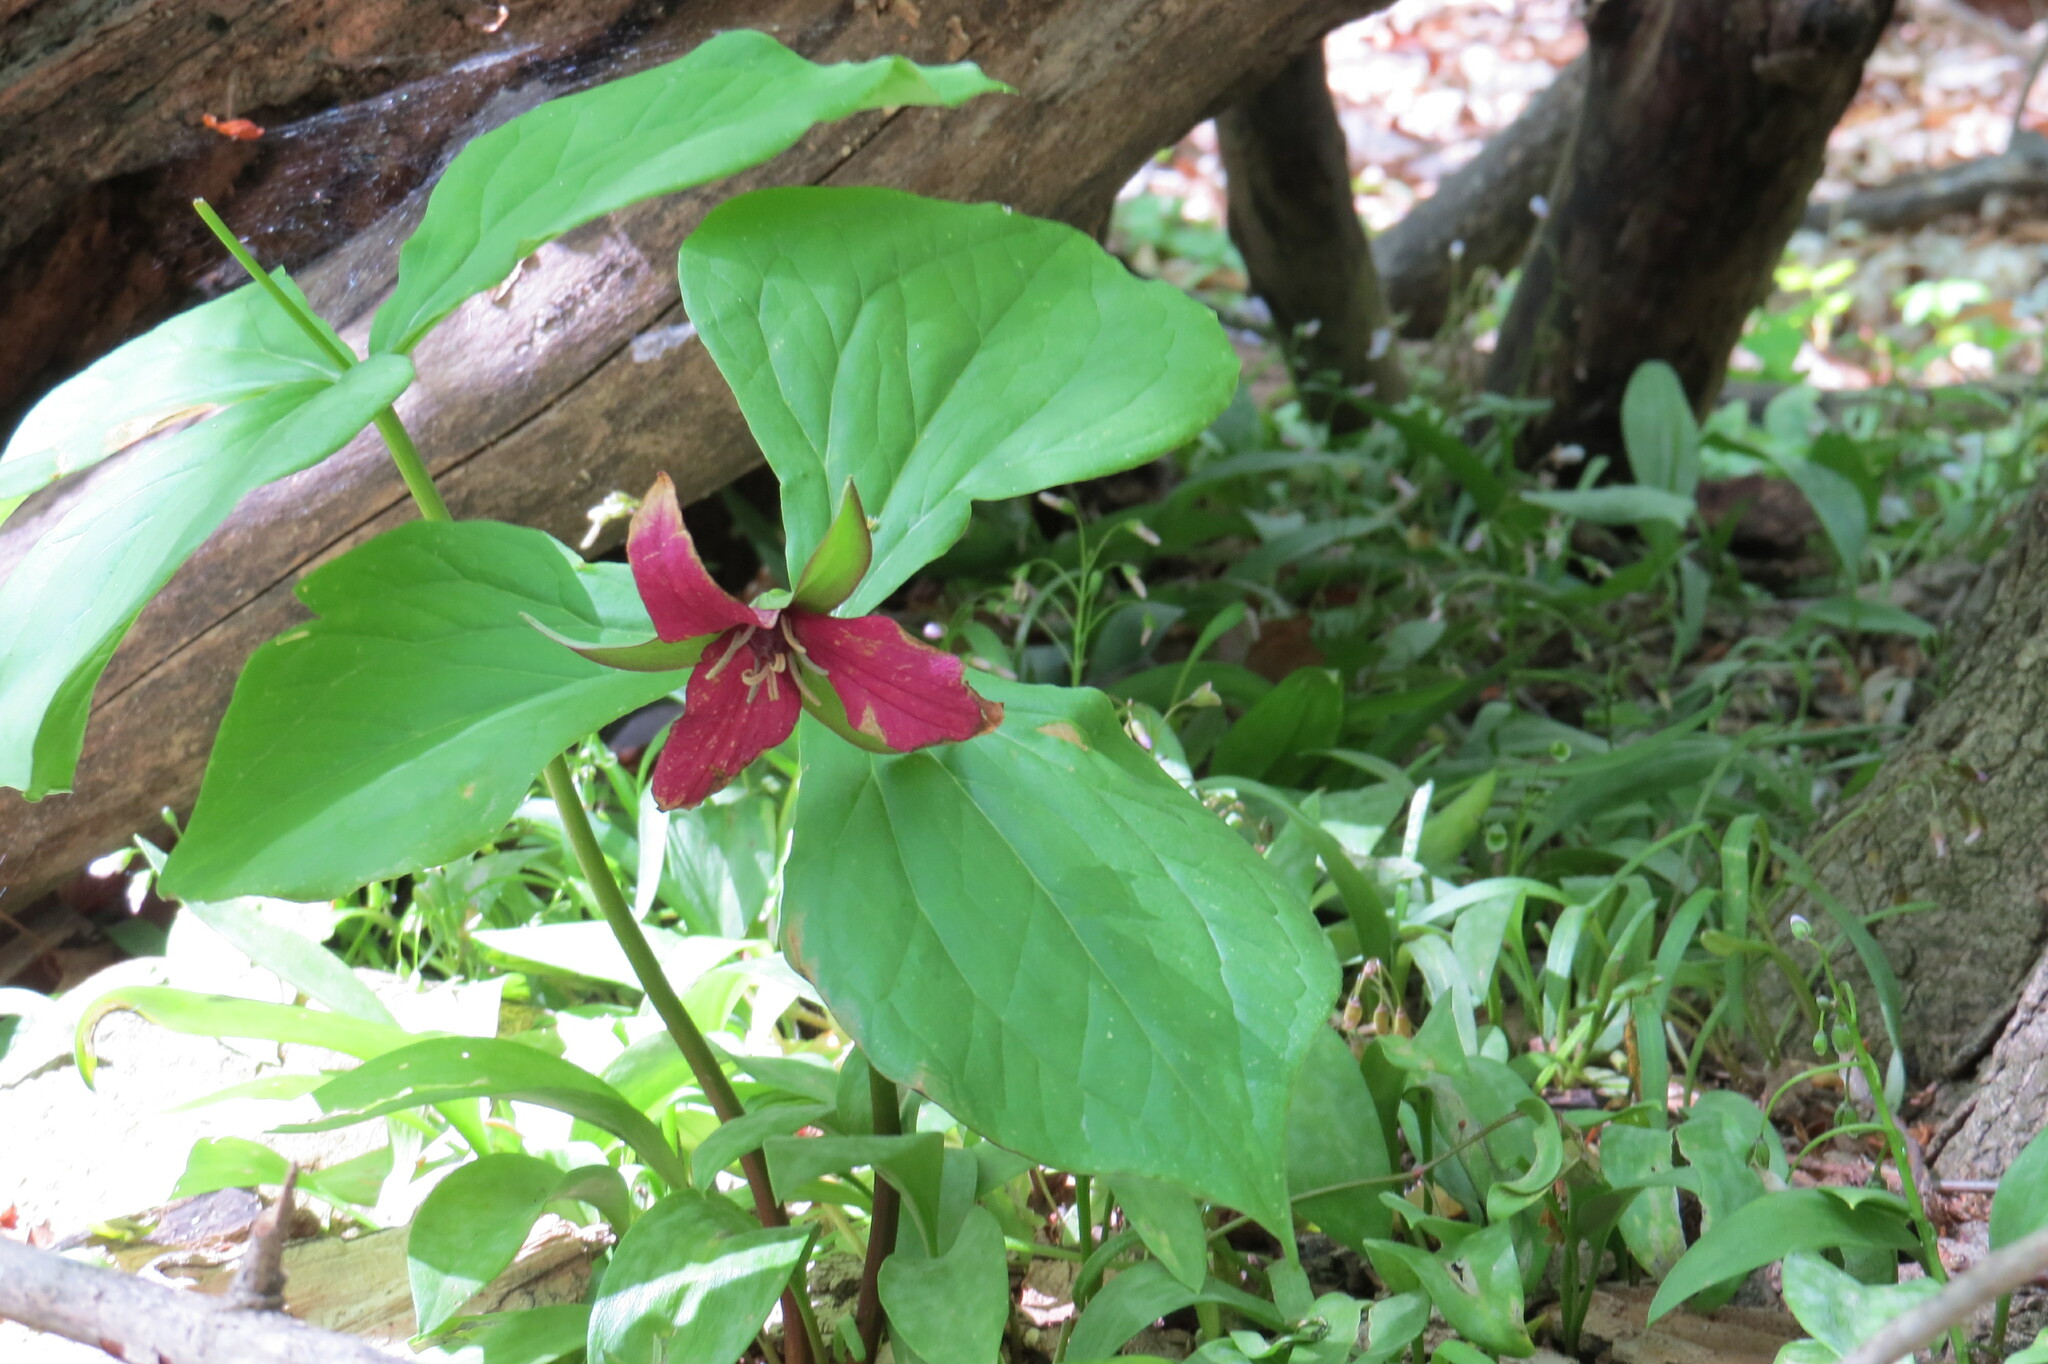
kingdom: Plantae
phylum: Tracheophyta
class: Liliopsida
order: Liliales
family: Melanthiaceae
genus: Trillium
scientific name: Trillium erectum
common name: Purple trillium
